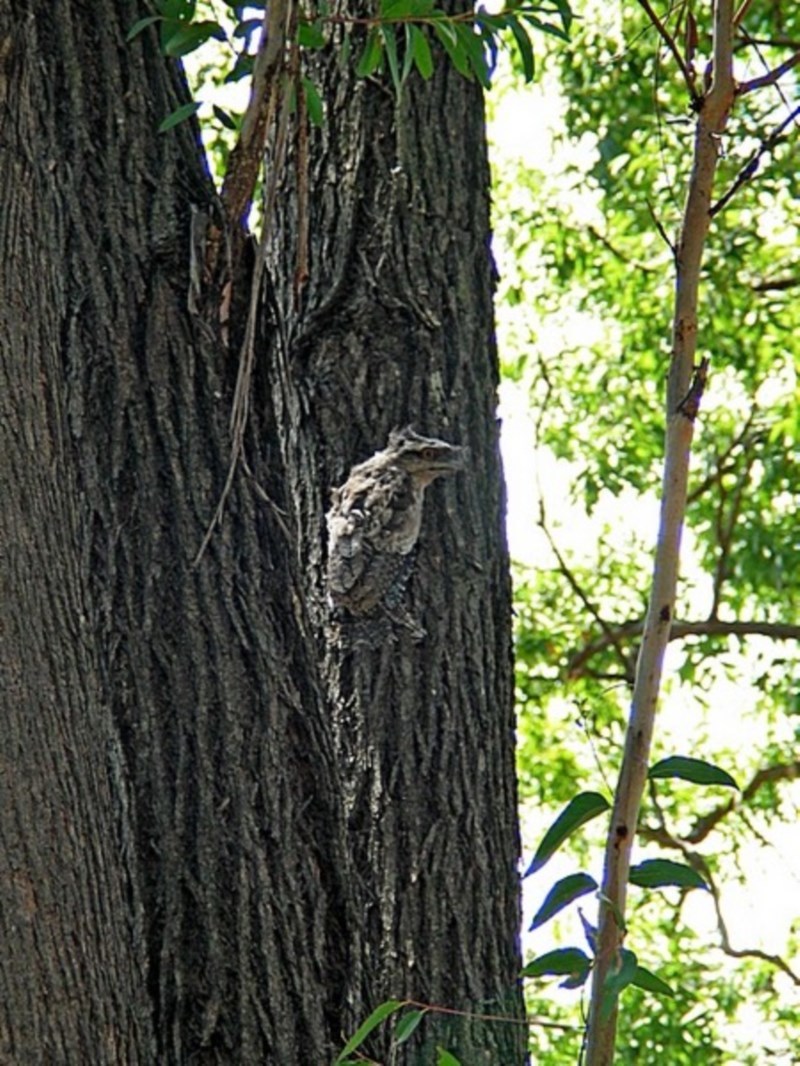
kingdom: Animalia
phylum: Chordata
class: Aves
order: Caprimulgiformes
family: Podargidae
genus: Podargus
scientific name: Podargus strigoides
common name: Tawny frogmouth
